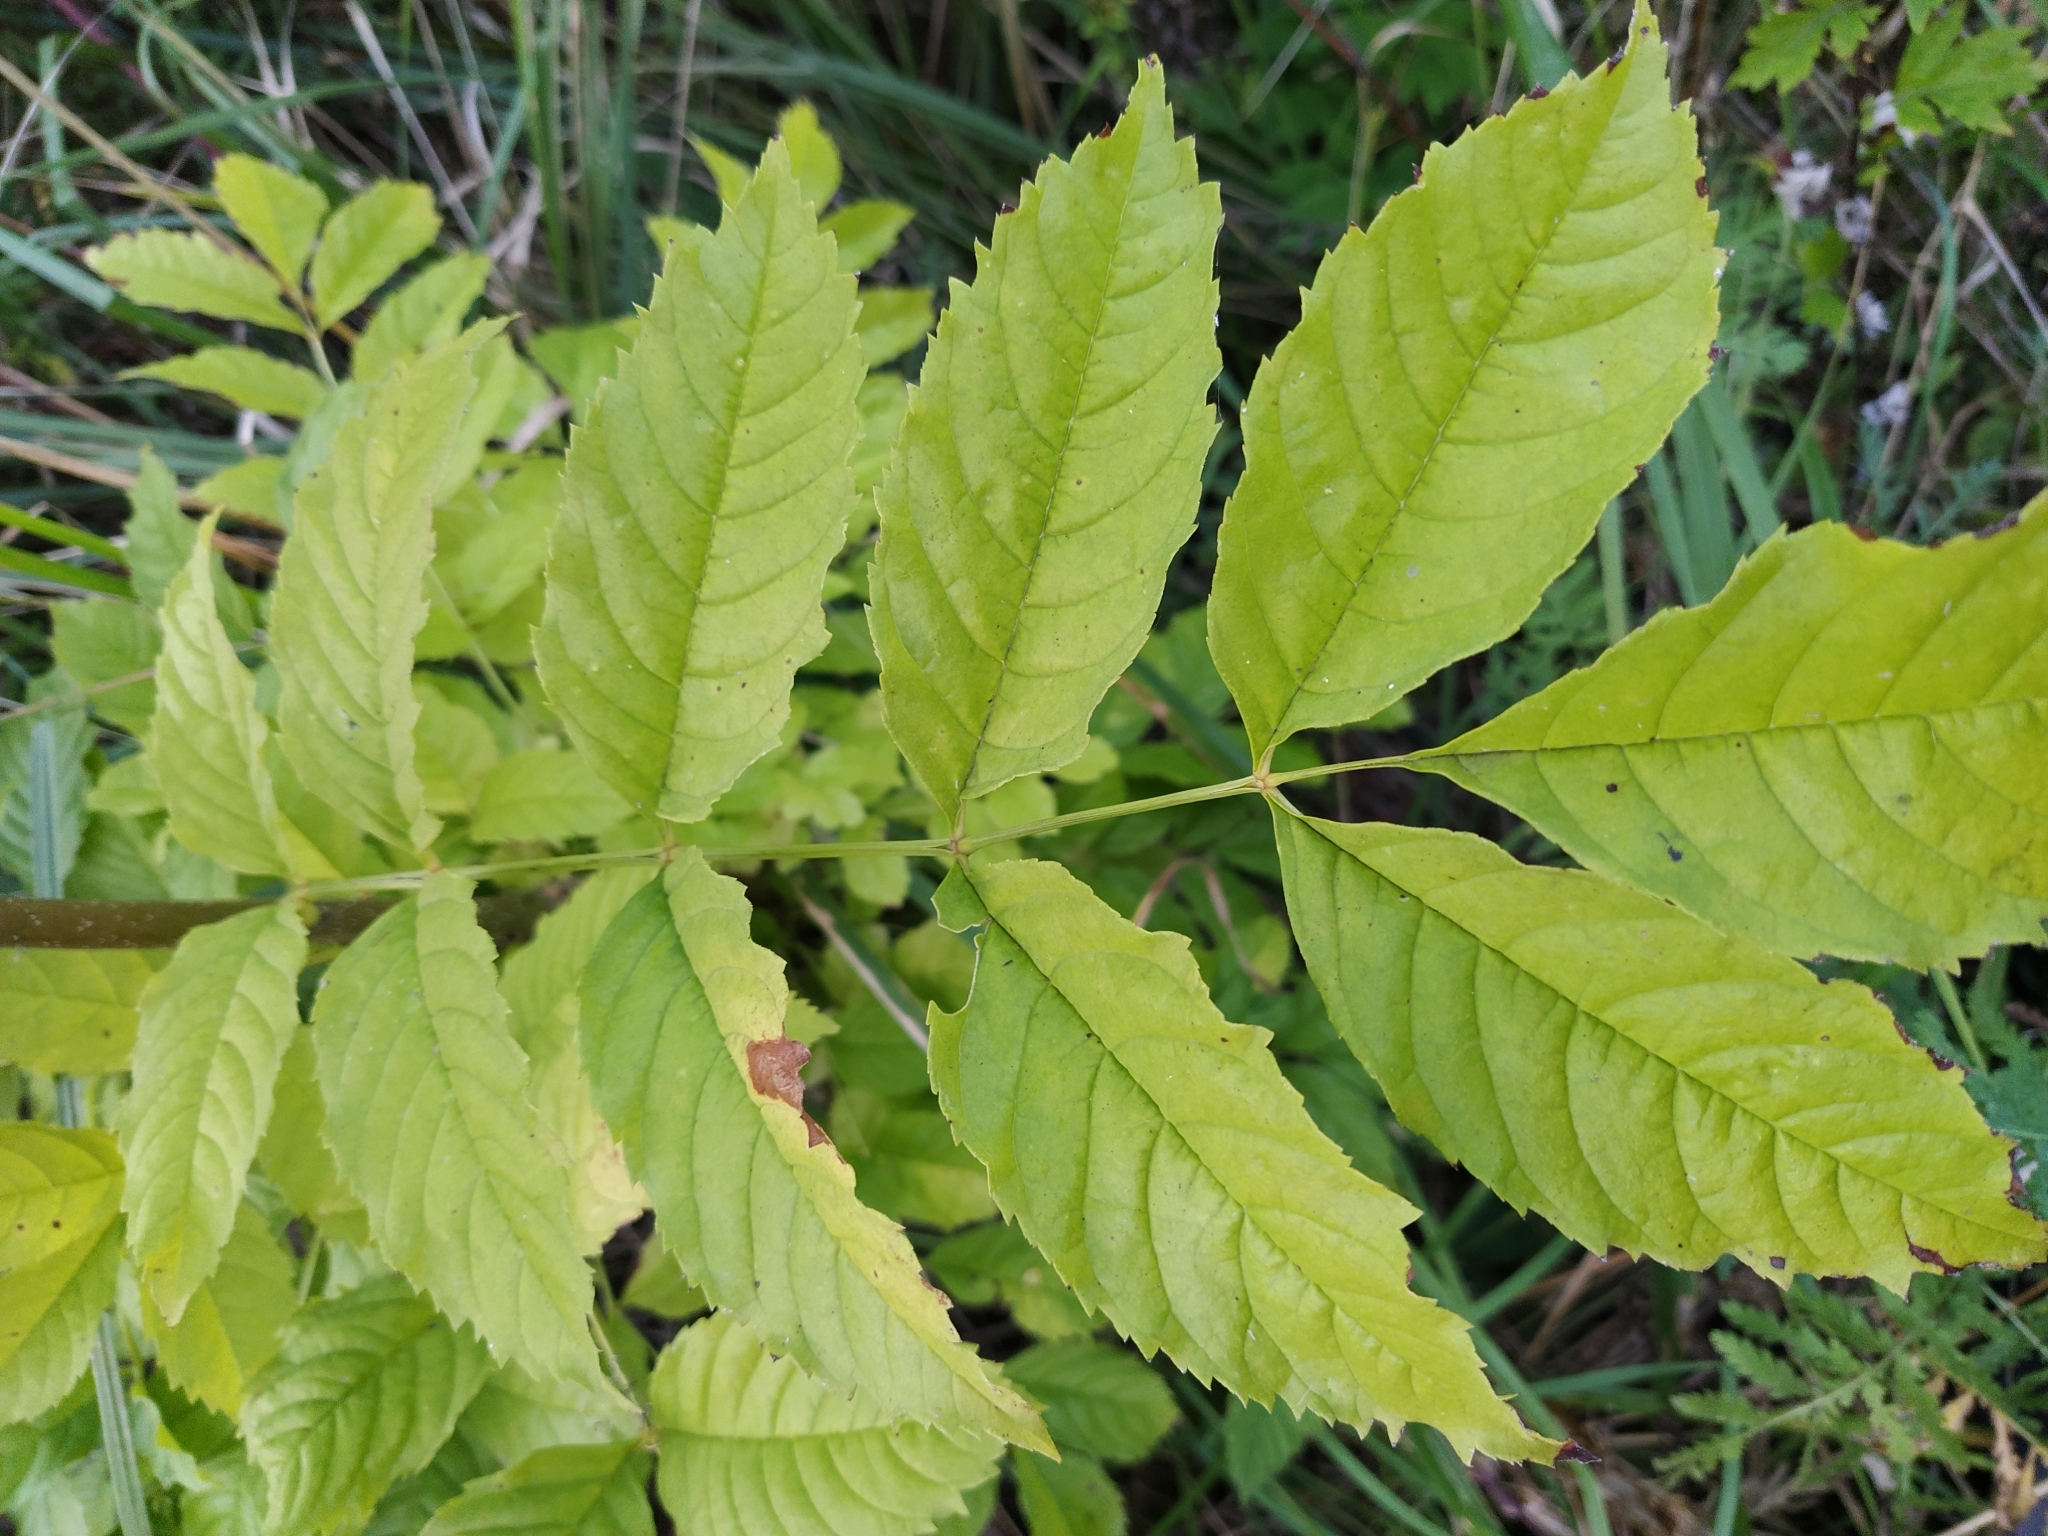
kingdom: Plantae
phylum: Tracheophyta
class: Magnoliopsida
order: Lamiales
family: Oleaceae
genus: Fraxinus
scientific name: Fraxinus excelsior
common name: European ash
